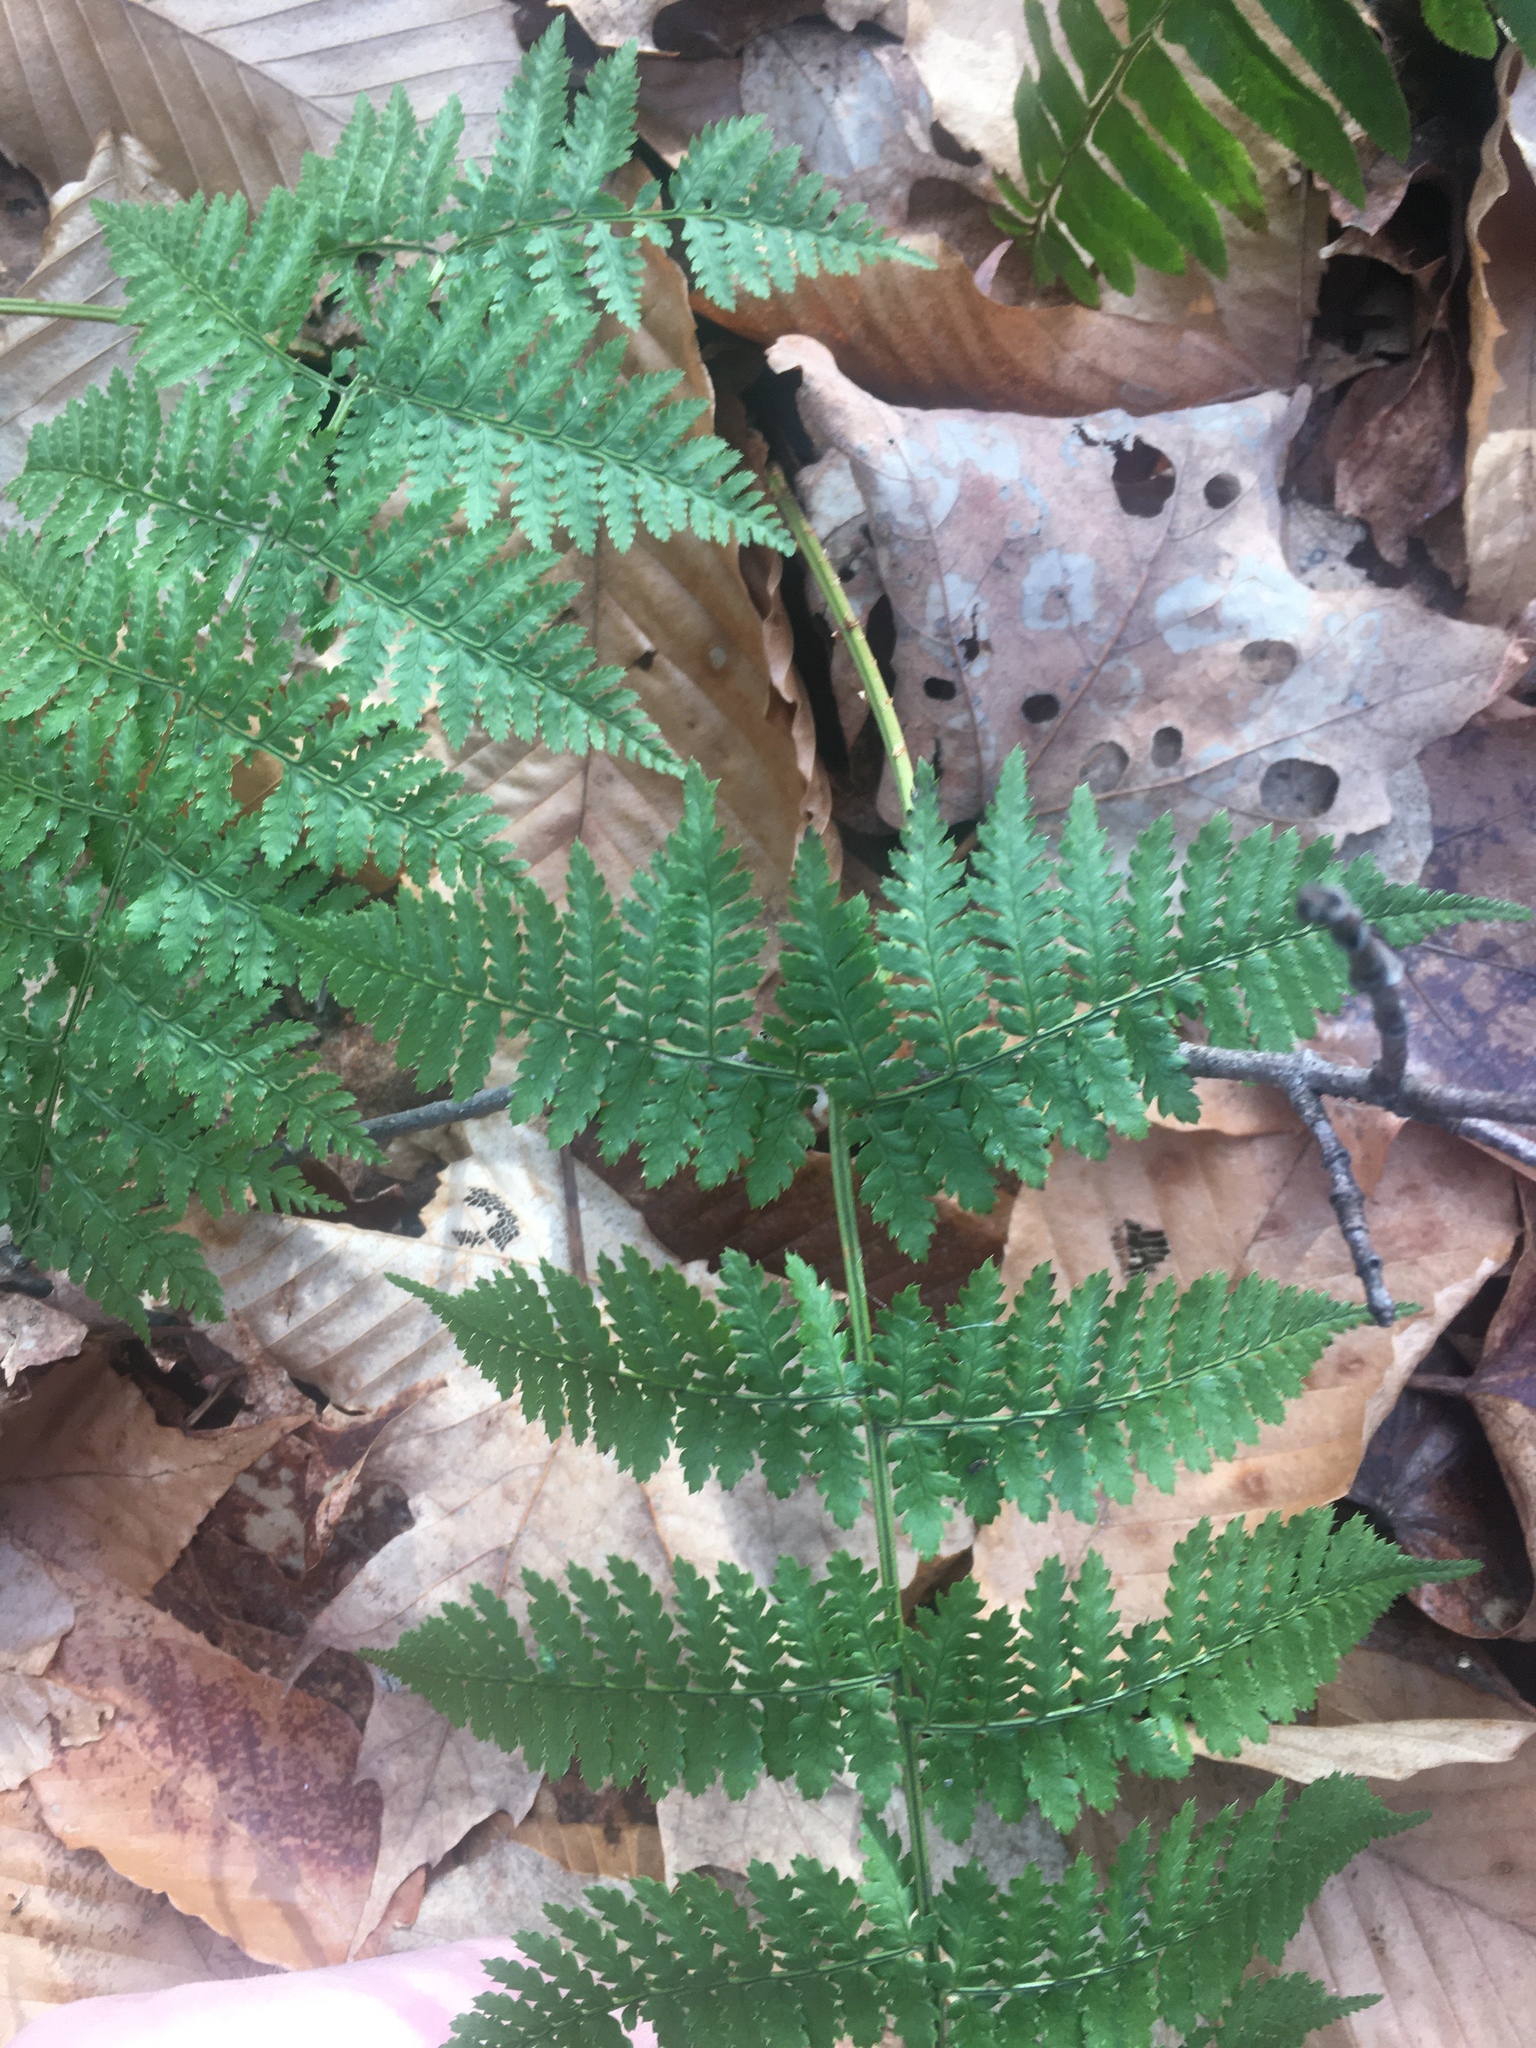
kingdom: Plantae
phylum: Tracheophyta
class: Polypodiopsida
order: Polypodiales
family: Dryopteridaceae
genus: Dryopteris
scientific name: Dryopteris intermedia
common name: Evergreen wood fern
